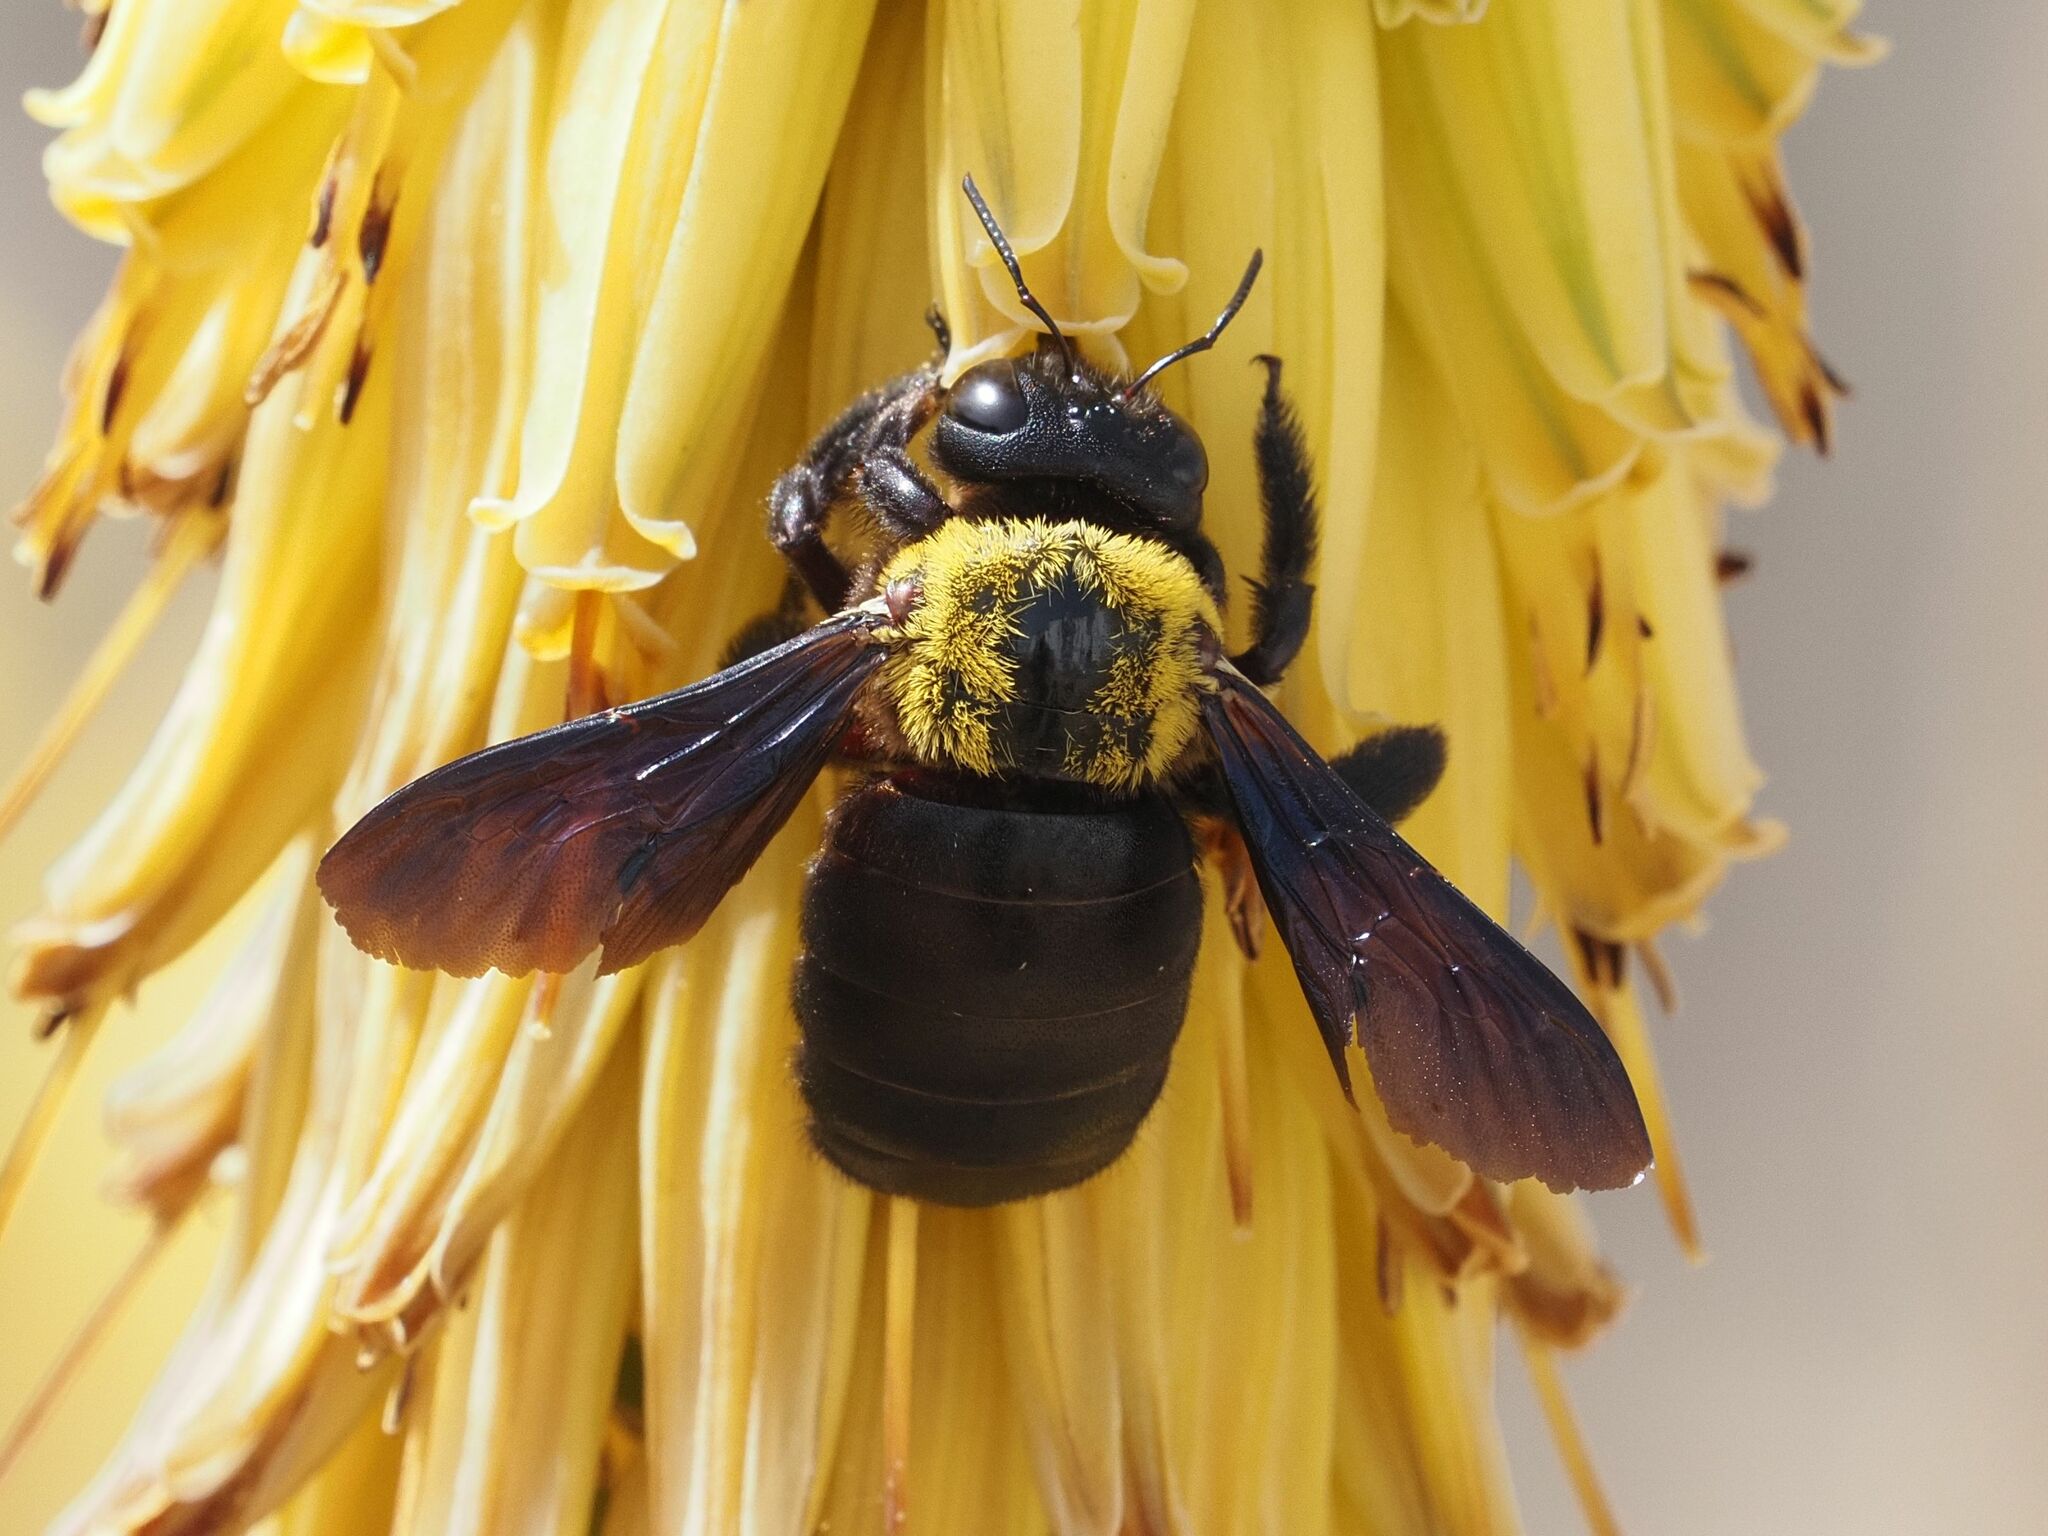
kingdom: Animalia
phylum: Arthropoda
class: Insecta
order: Hymenoptera
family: Apidae
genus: Xylocopa
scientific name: Xylocopa pubescens
